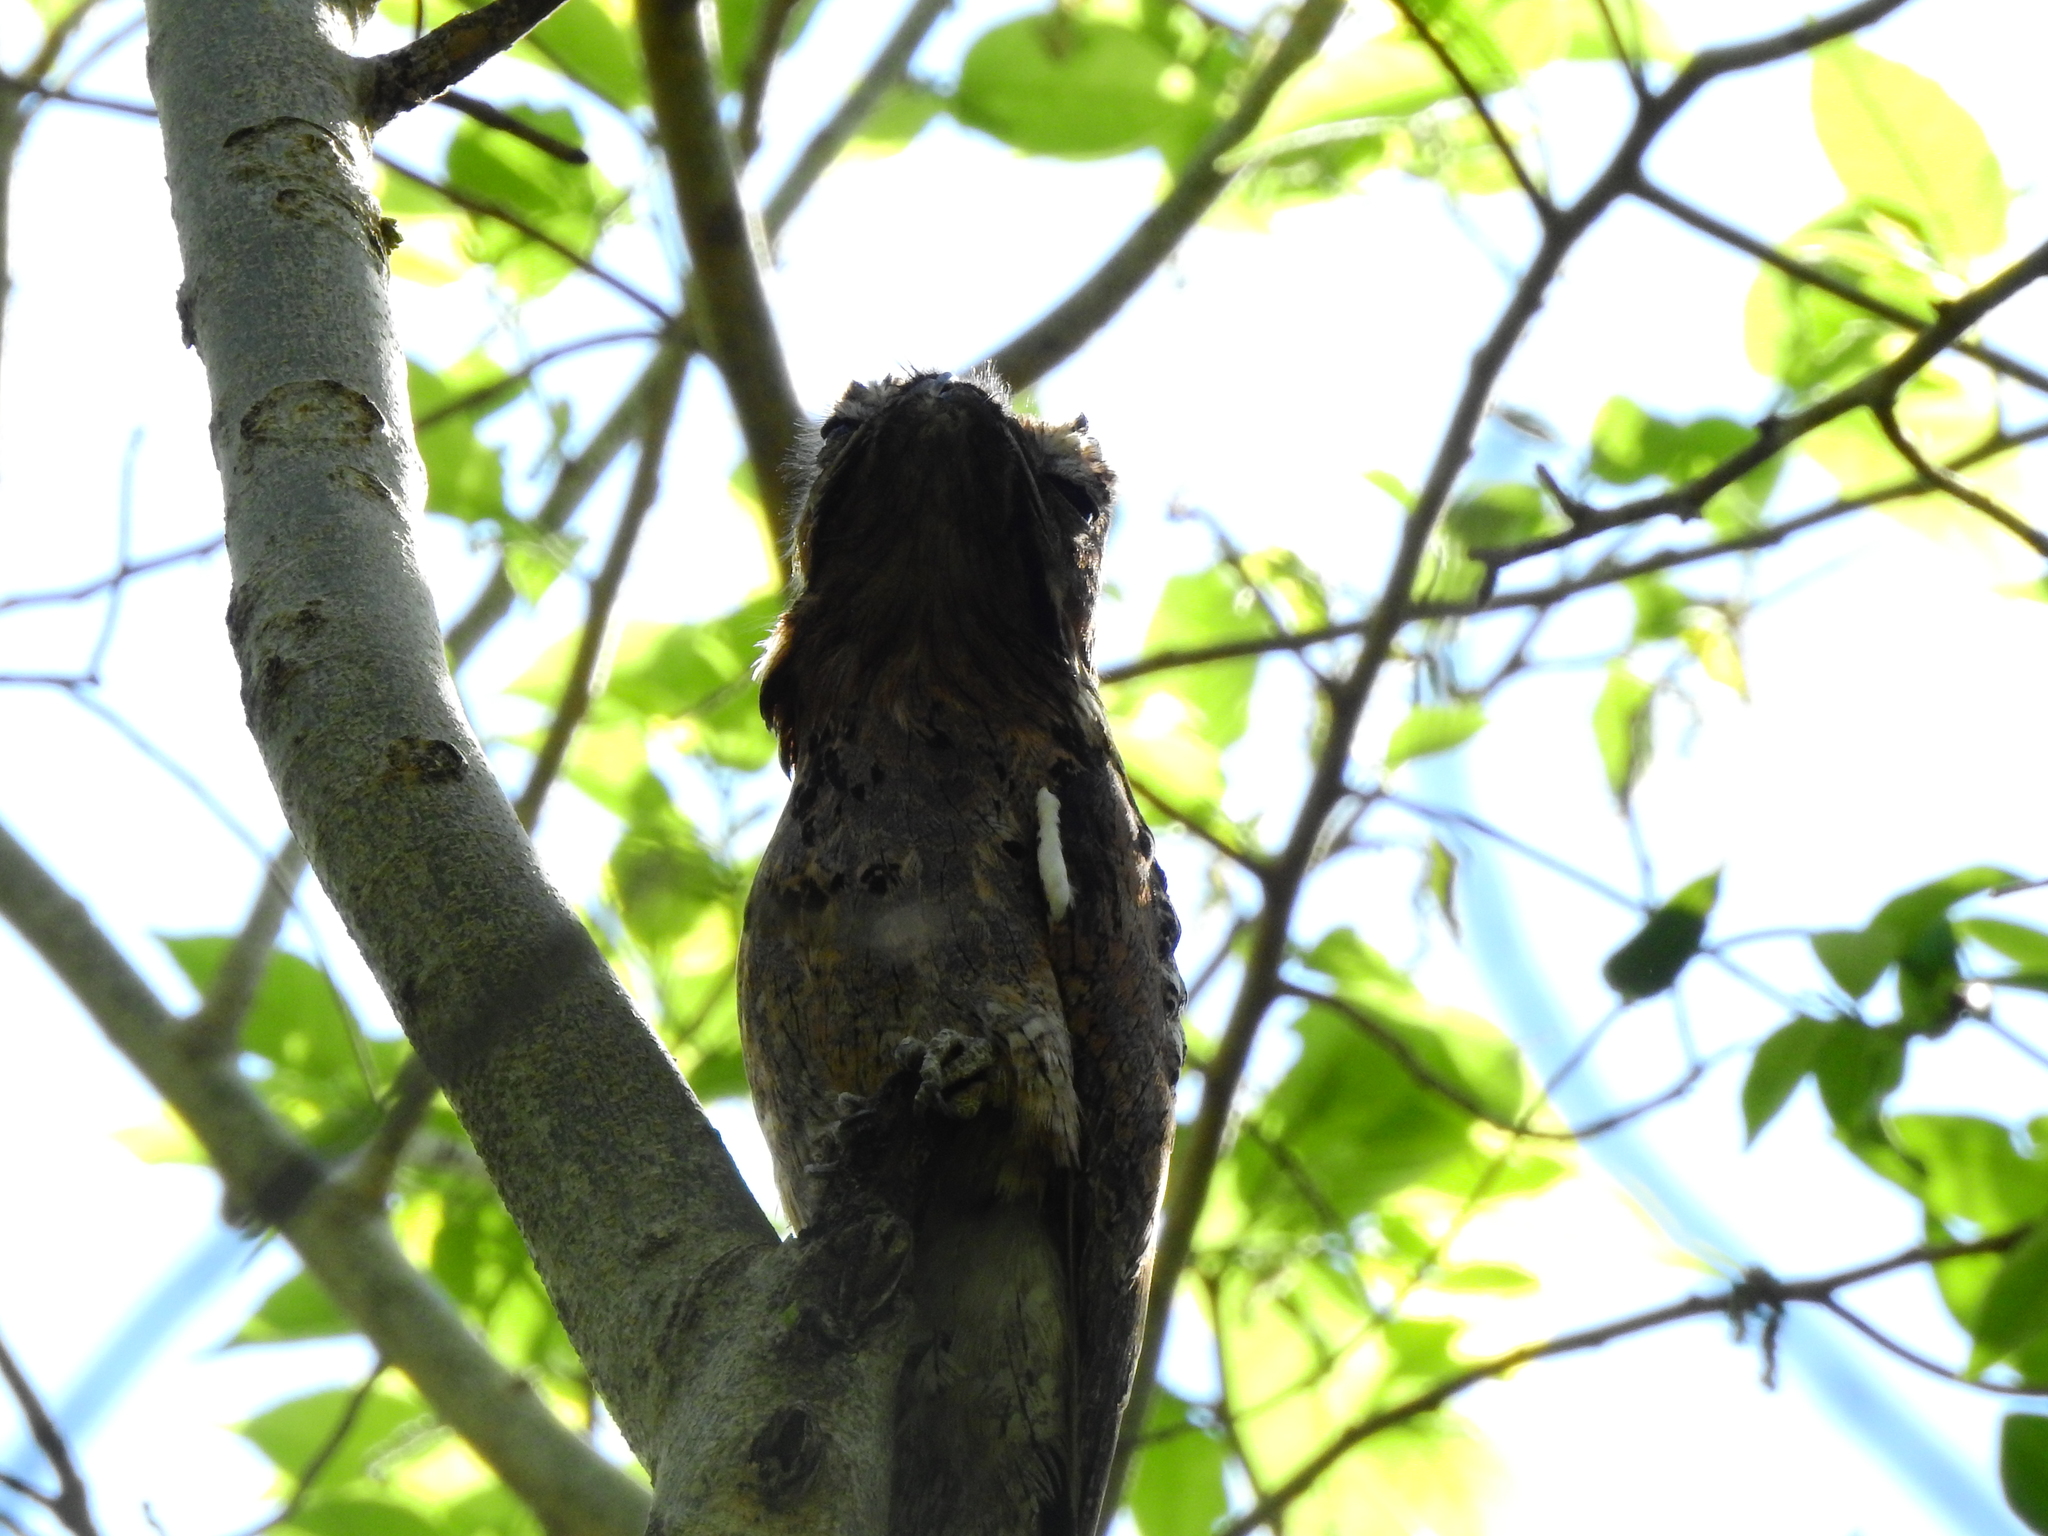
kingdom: Animalia
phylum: Chordata
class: Aves
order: Nyctibiiformes
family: Nyctibiidae
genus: Nyctibius
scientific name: Nyctibius griseus
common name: Common potoo
